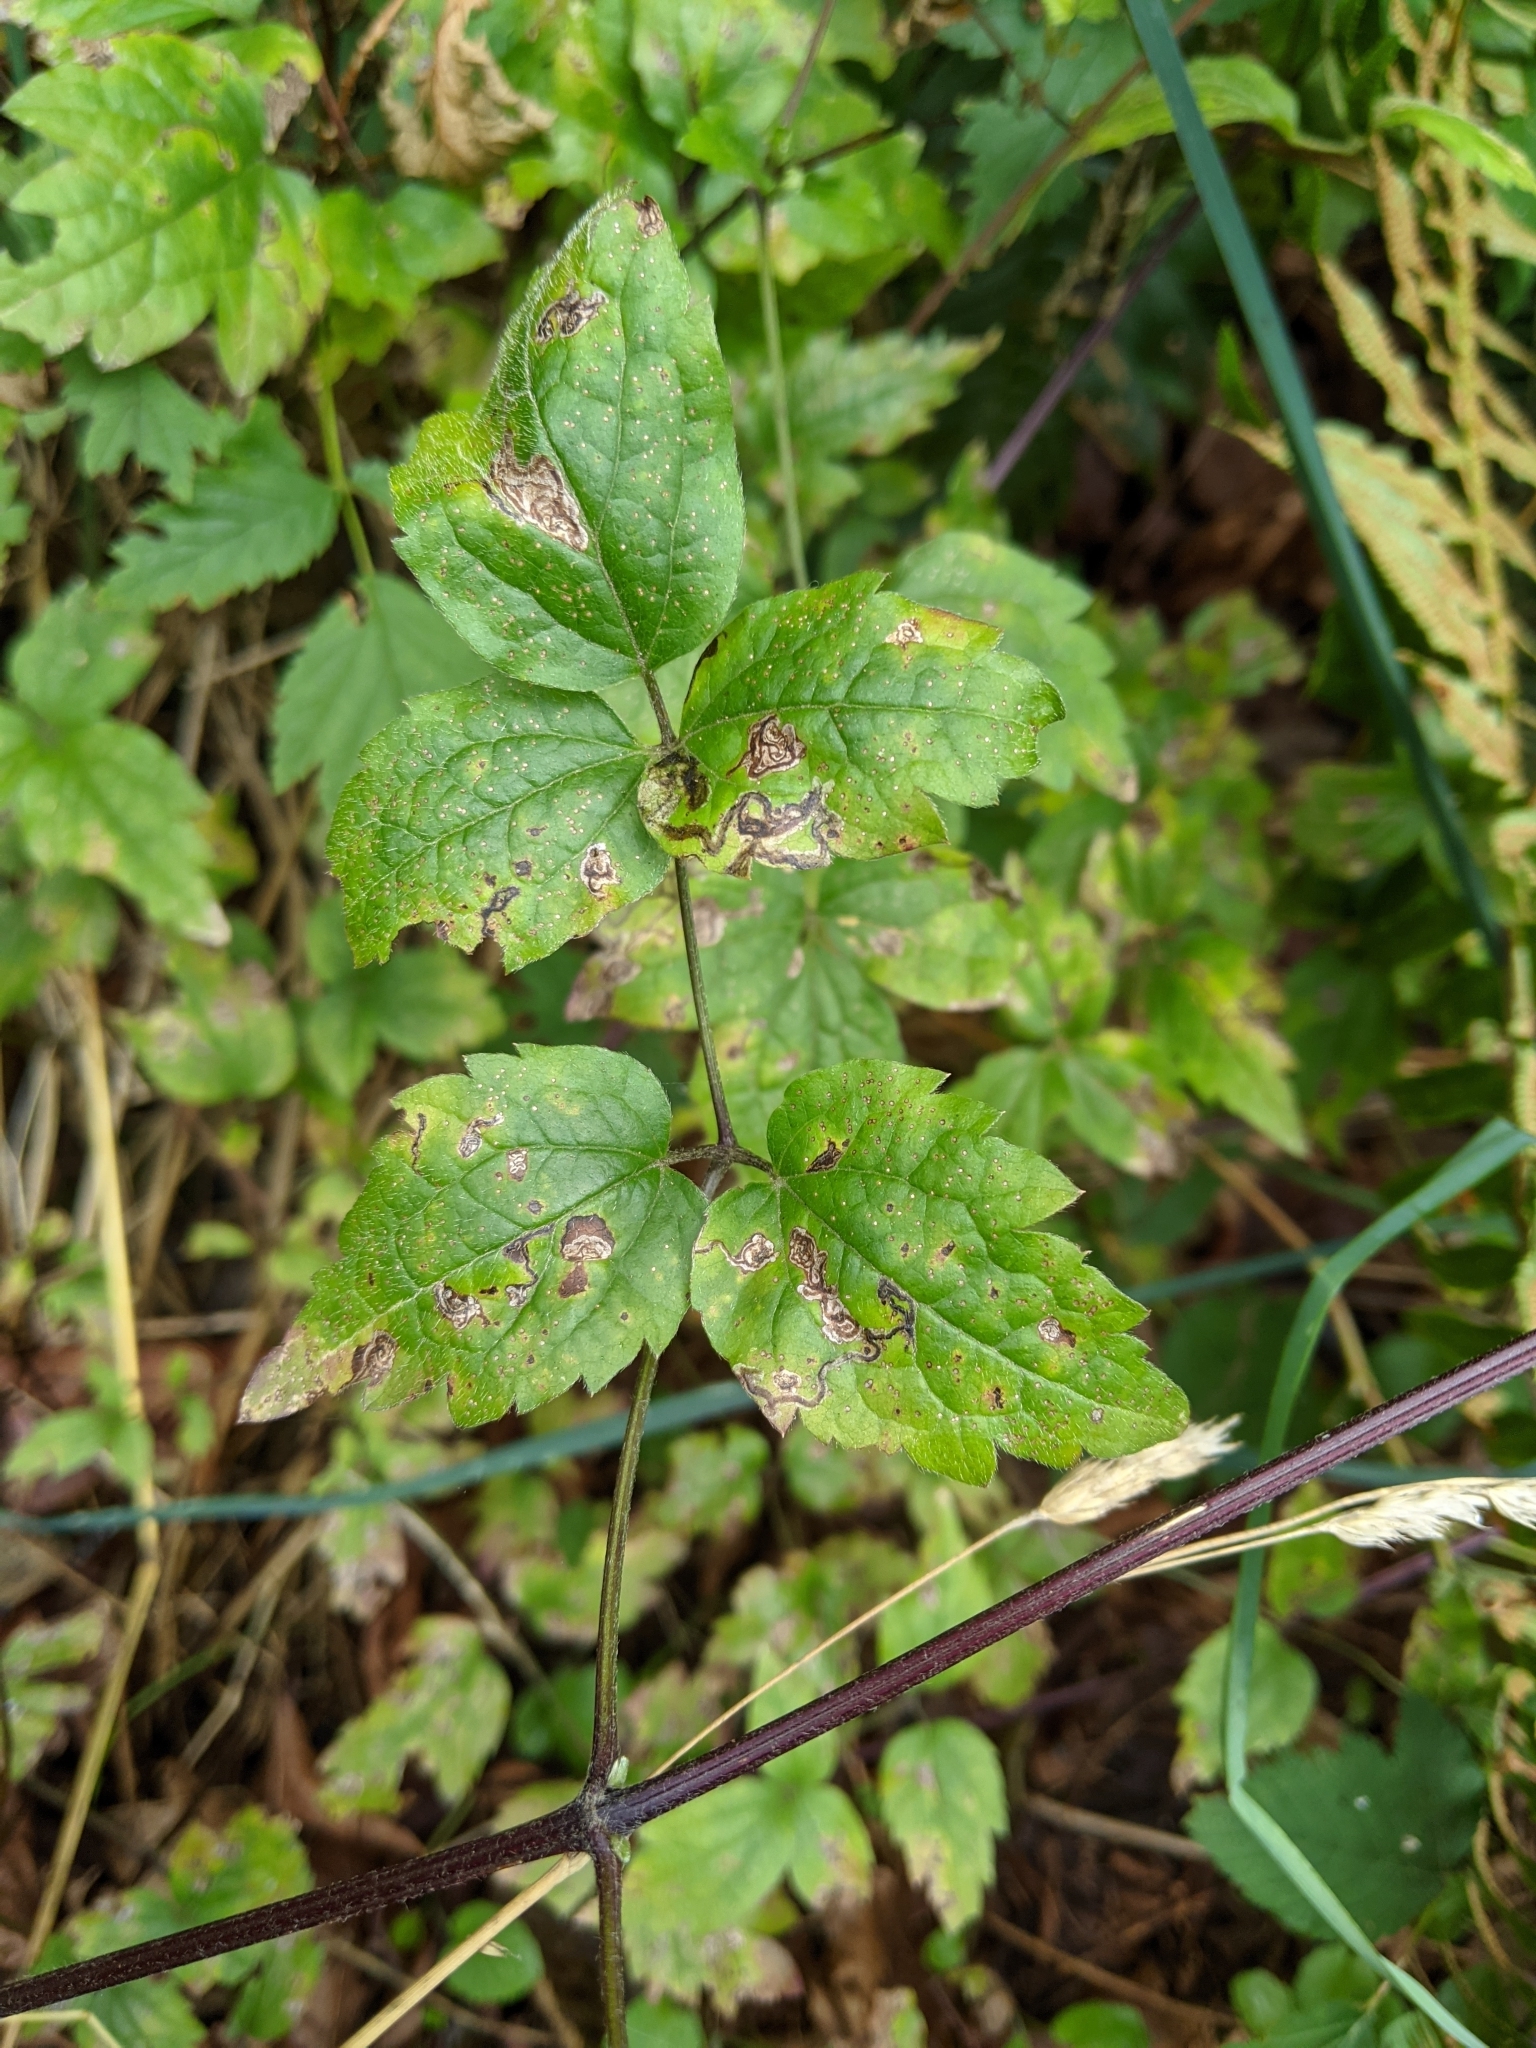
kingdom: Plantae
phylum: Tracheophyta
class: Magnoliopsida
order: Ranunculales
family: Ranunculaceae
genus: Clematis
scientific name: Clematis vitalba
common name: Evergreen clematis
